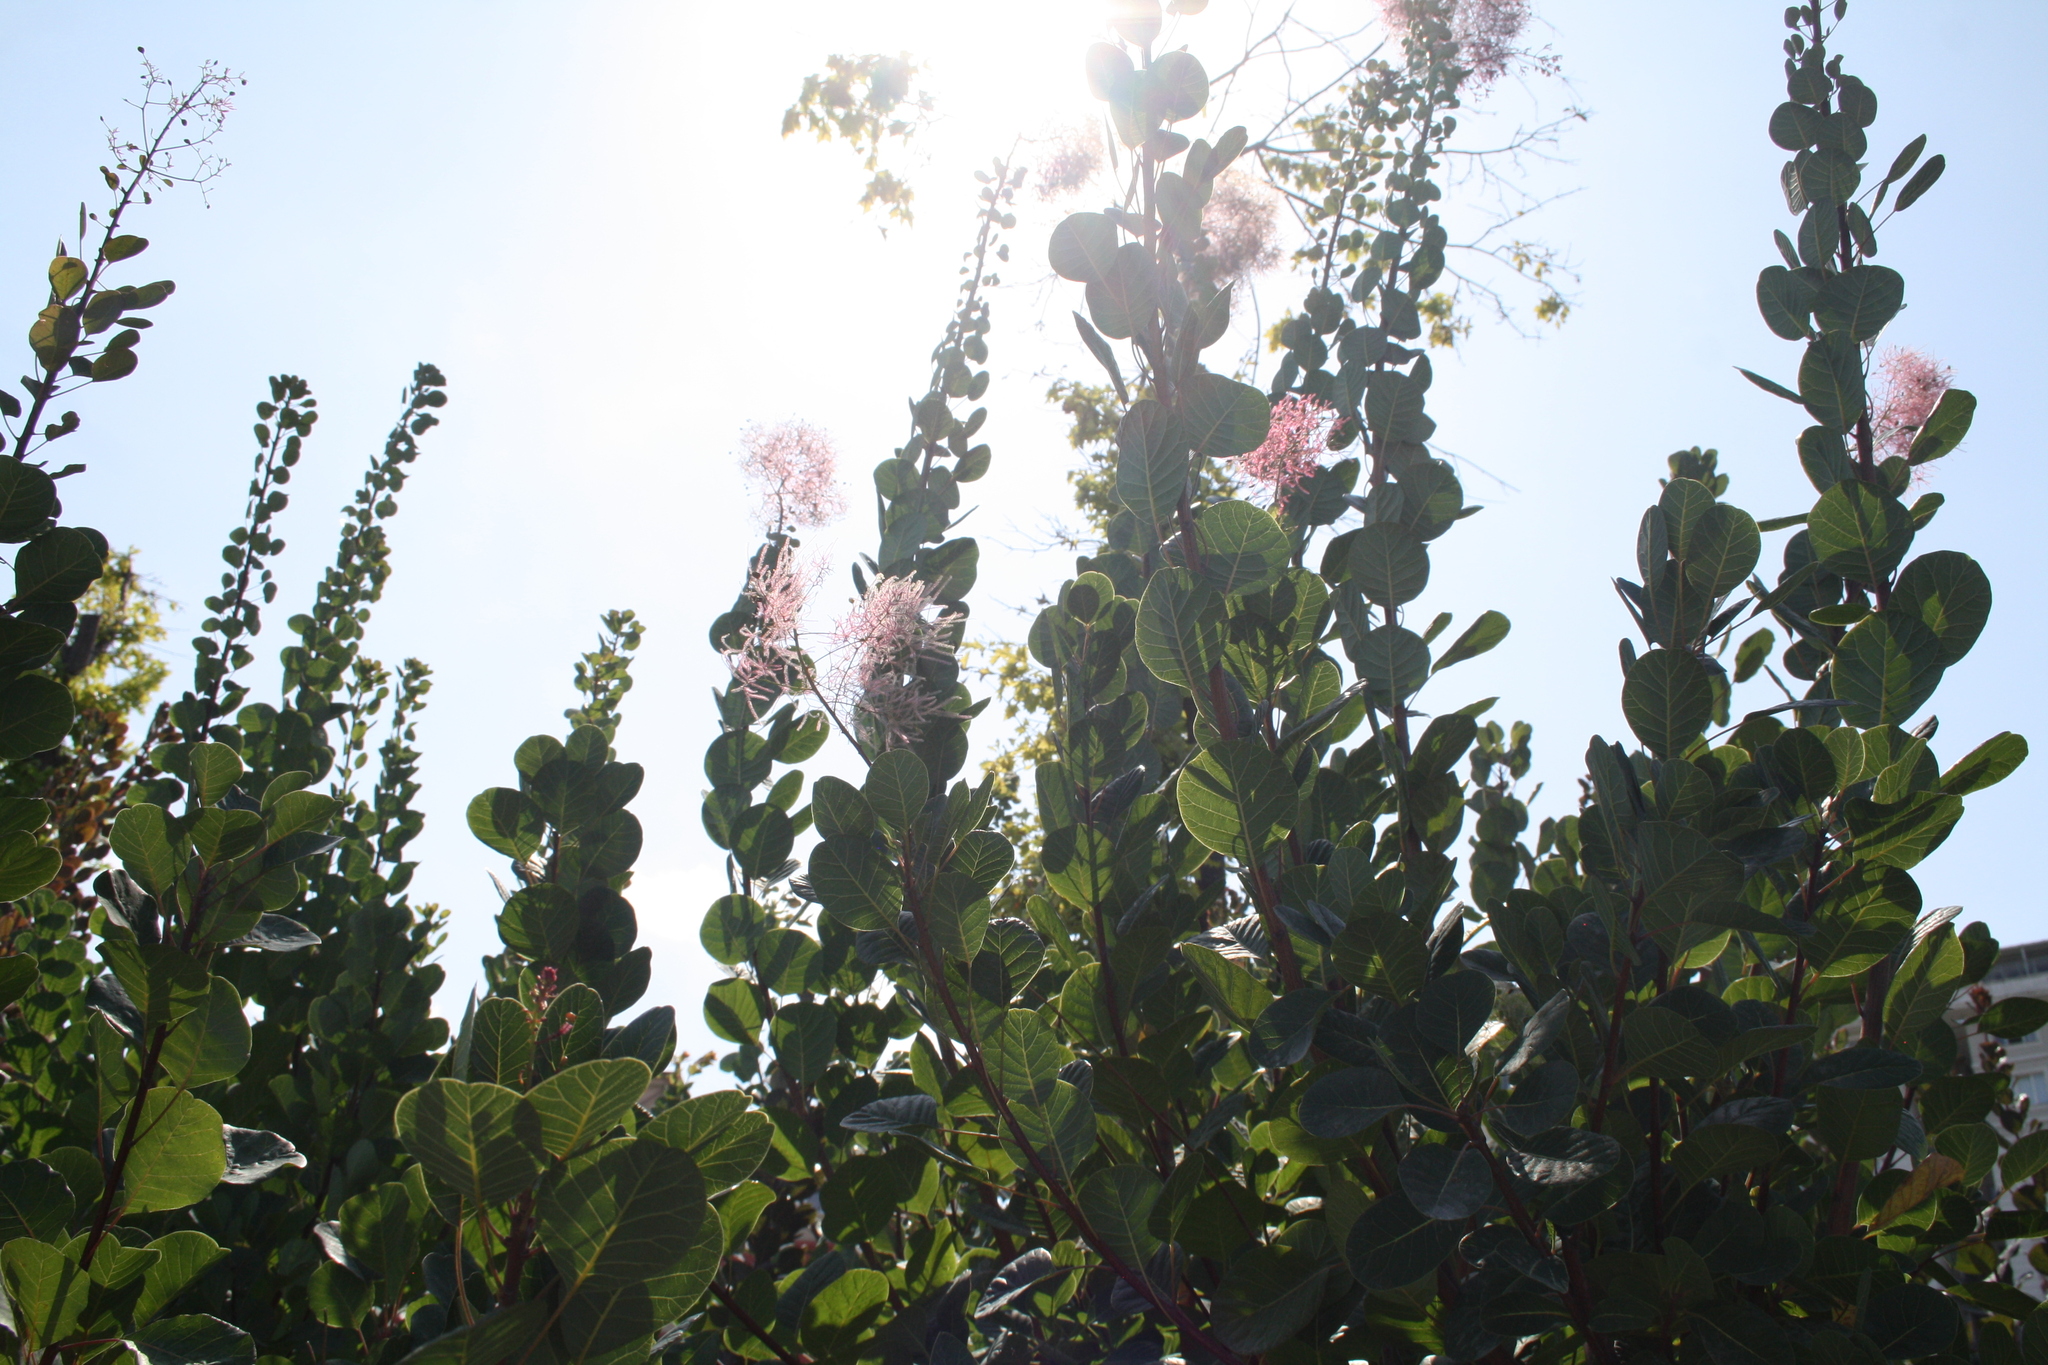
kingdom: Plantae
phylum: Tracheophyta
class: Magnoliopsida
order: Sapindales
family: Anacardiaceae
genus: Cotinus
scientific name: Cotinus coggygria
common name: Smoke-tree
